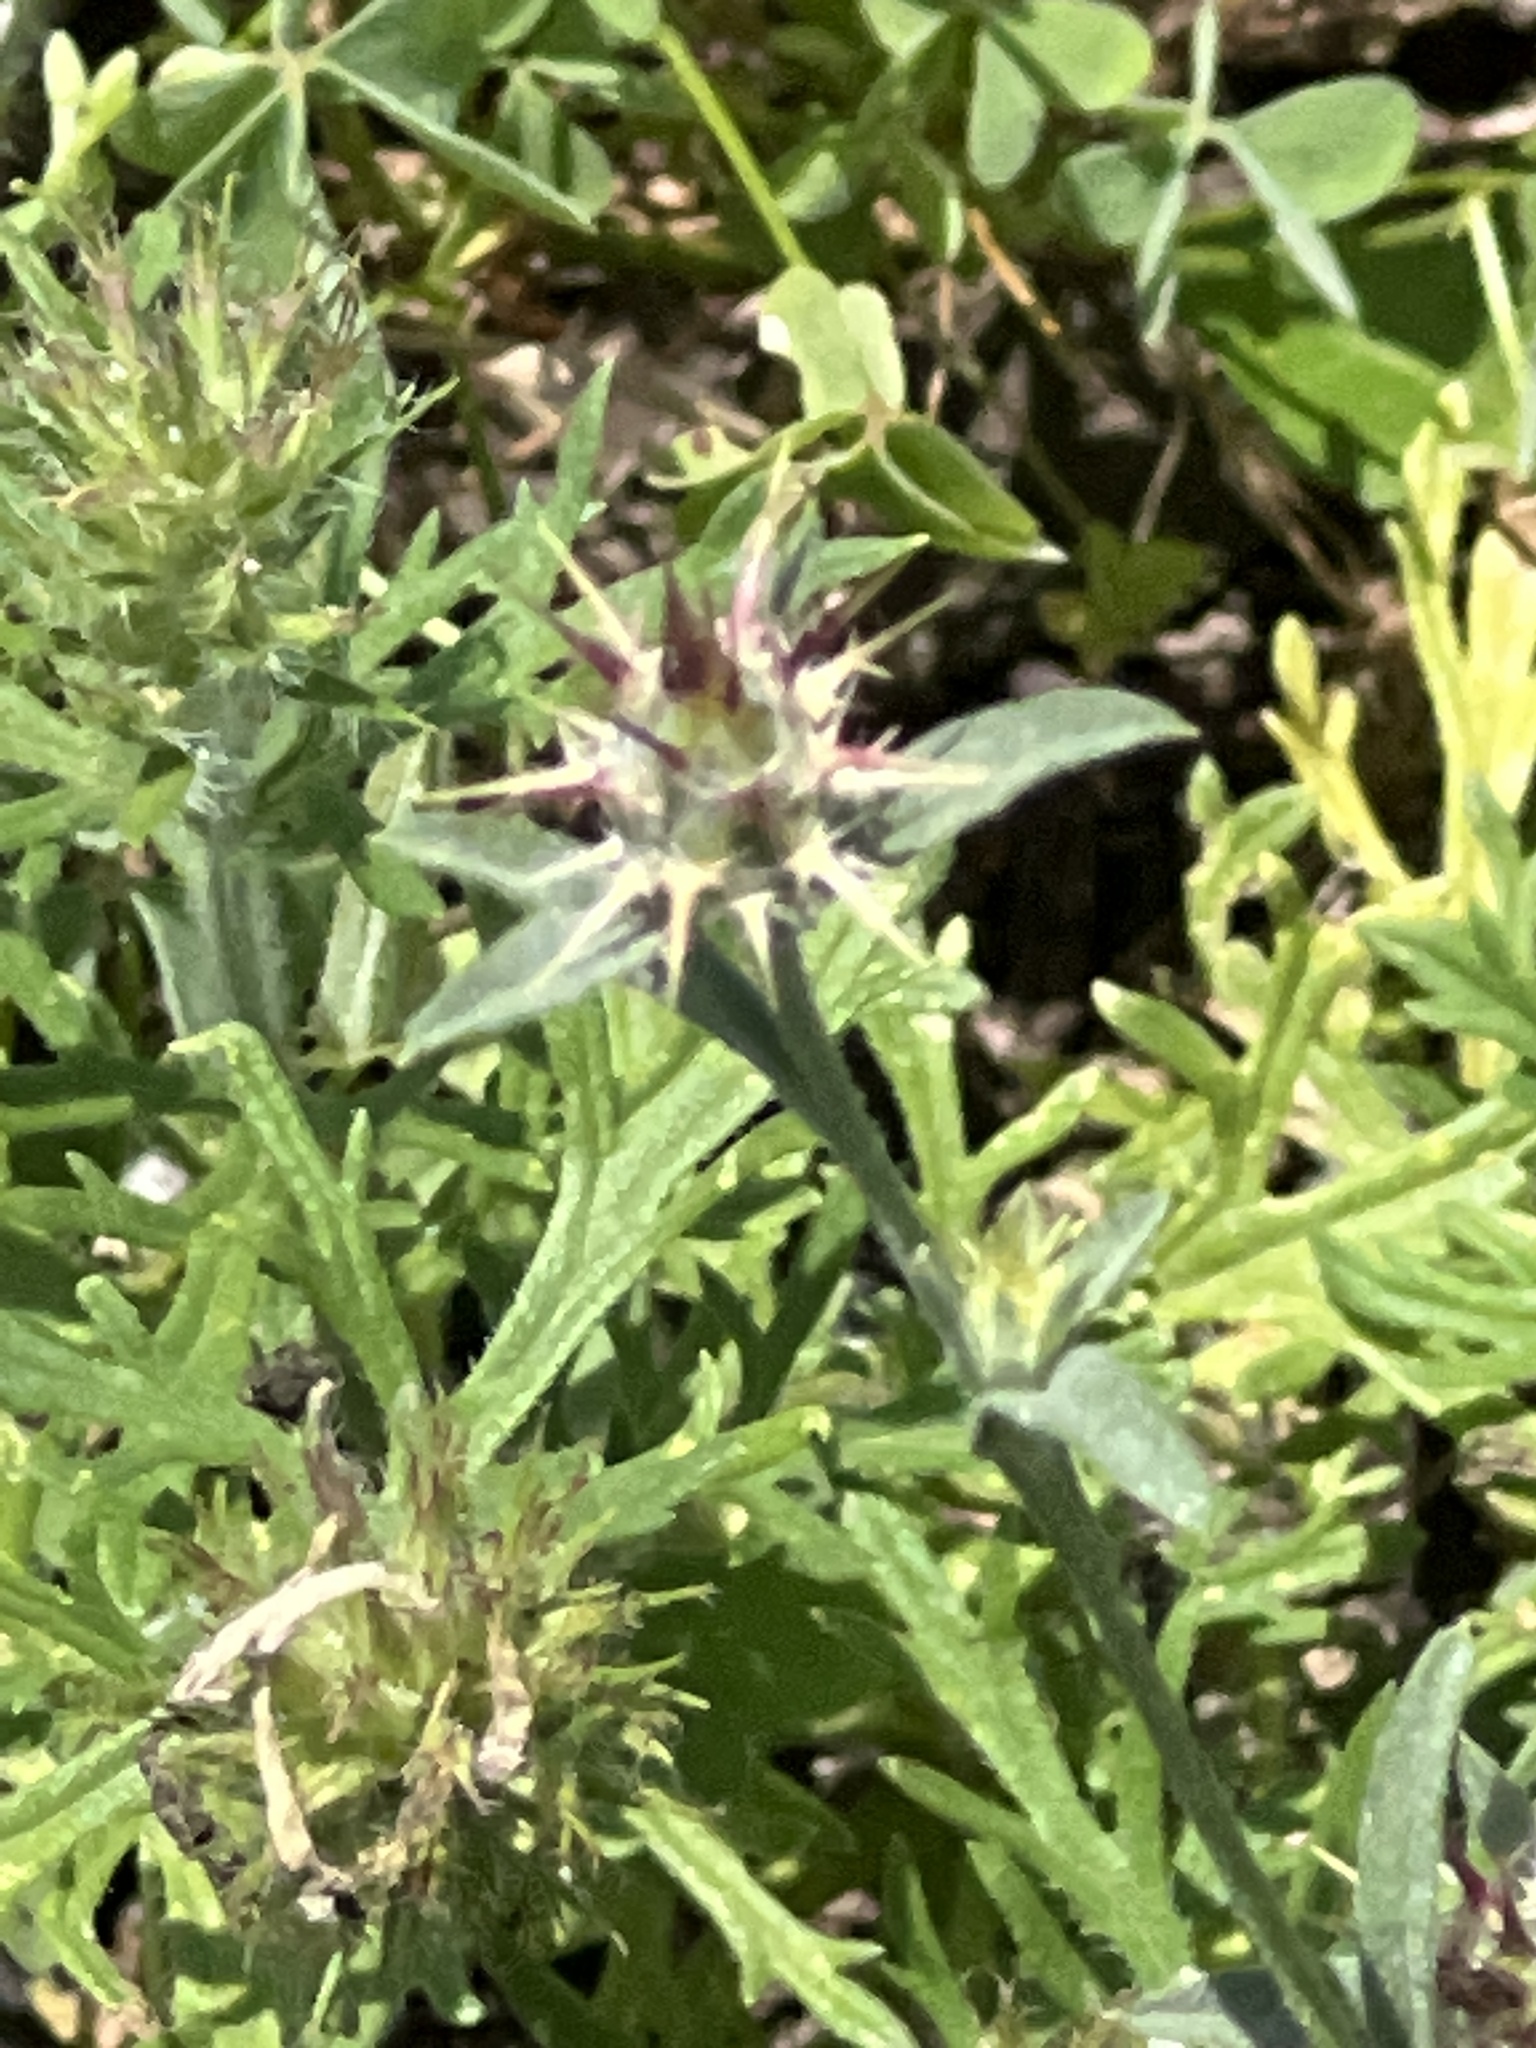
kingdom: Plantae
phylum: Tracheophyta
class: Magnoliopsida
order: Asterales
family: Asteraceae
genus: Centaurea
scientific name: Centaurea melitensis
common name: Maltese star-thistle
